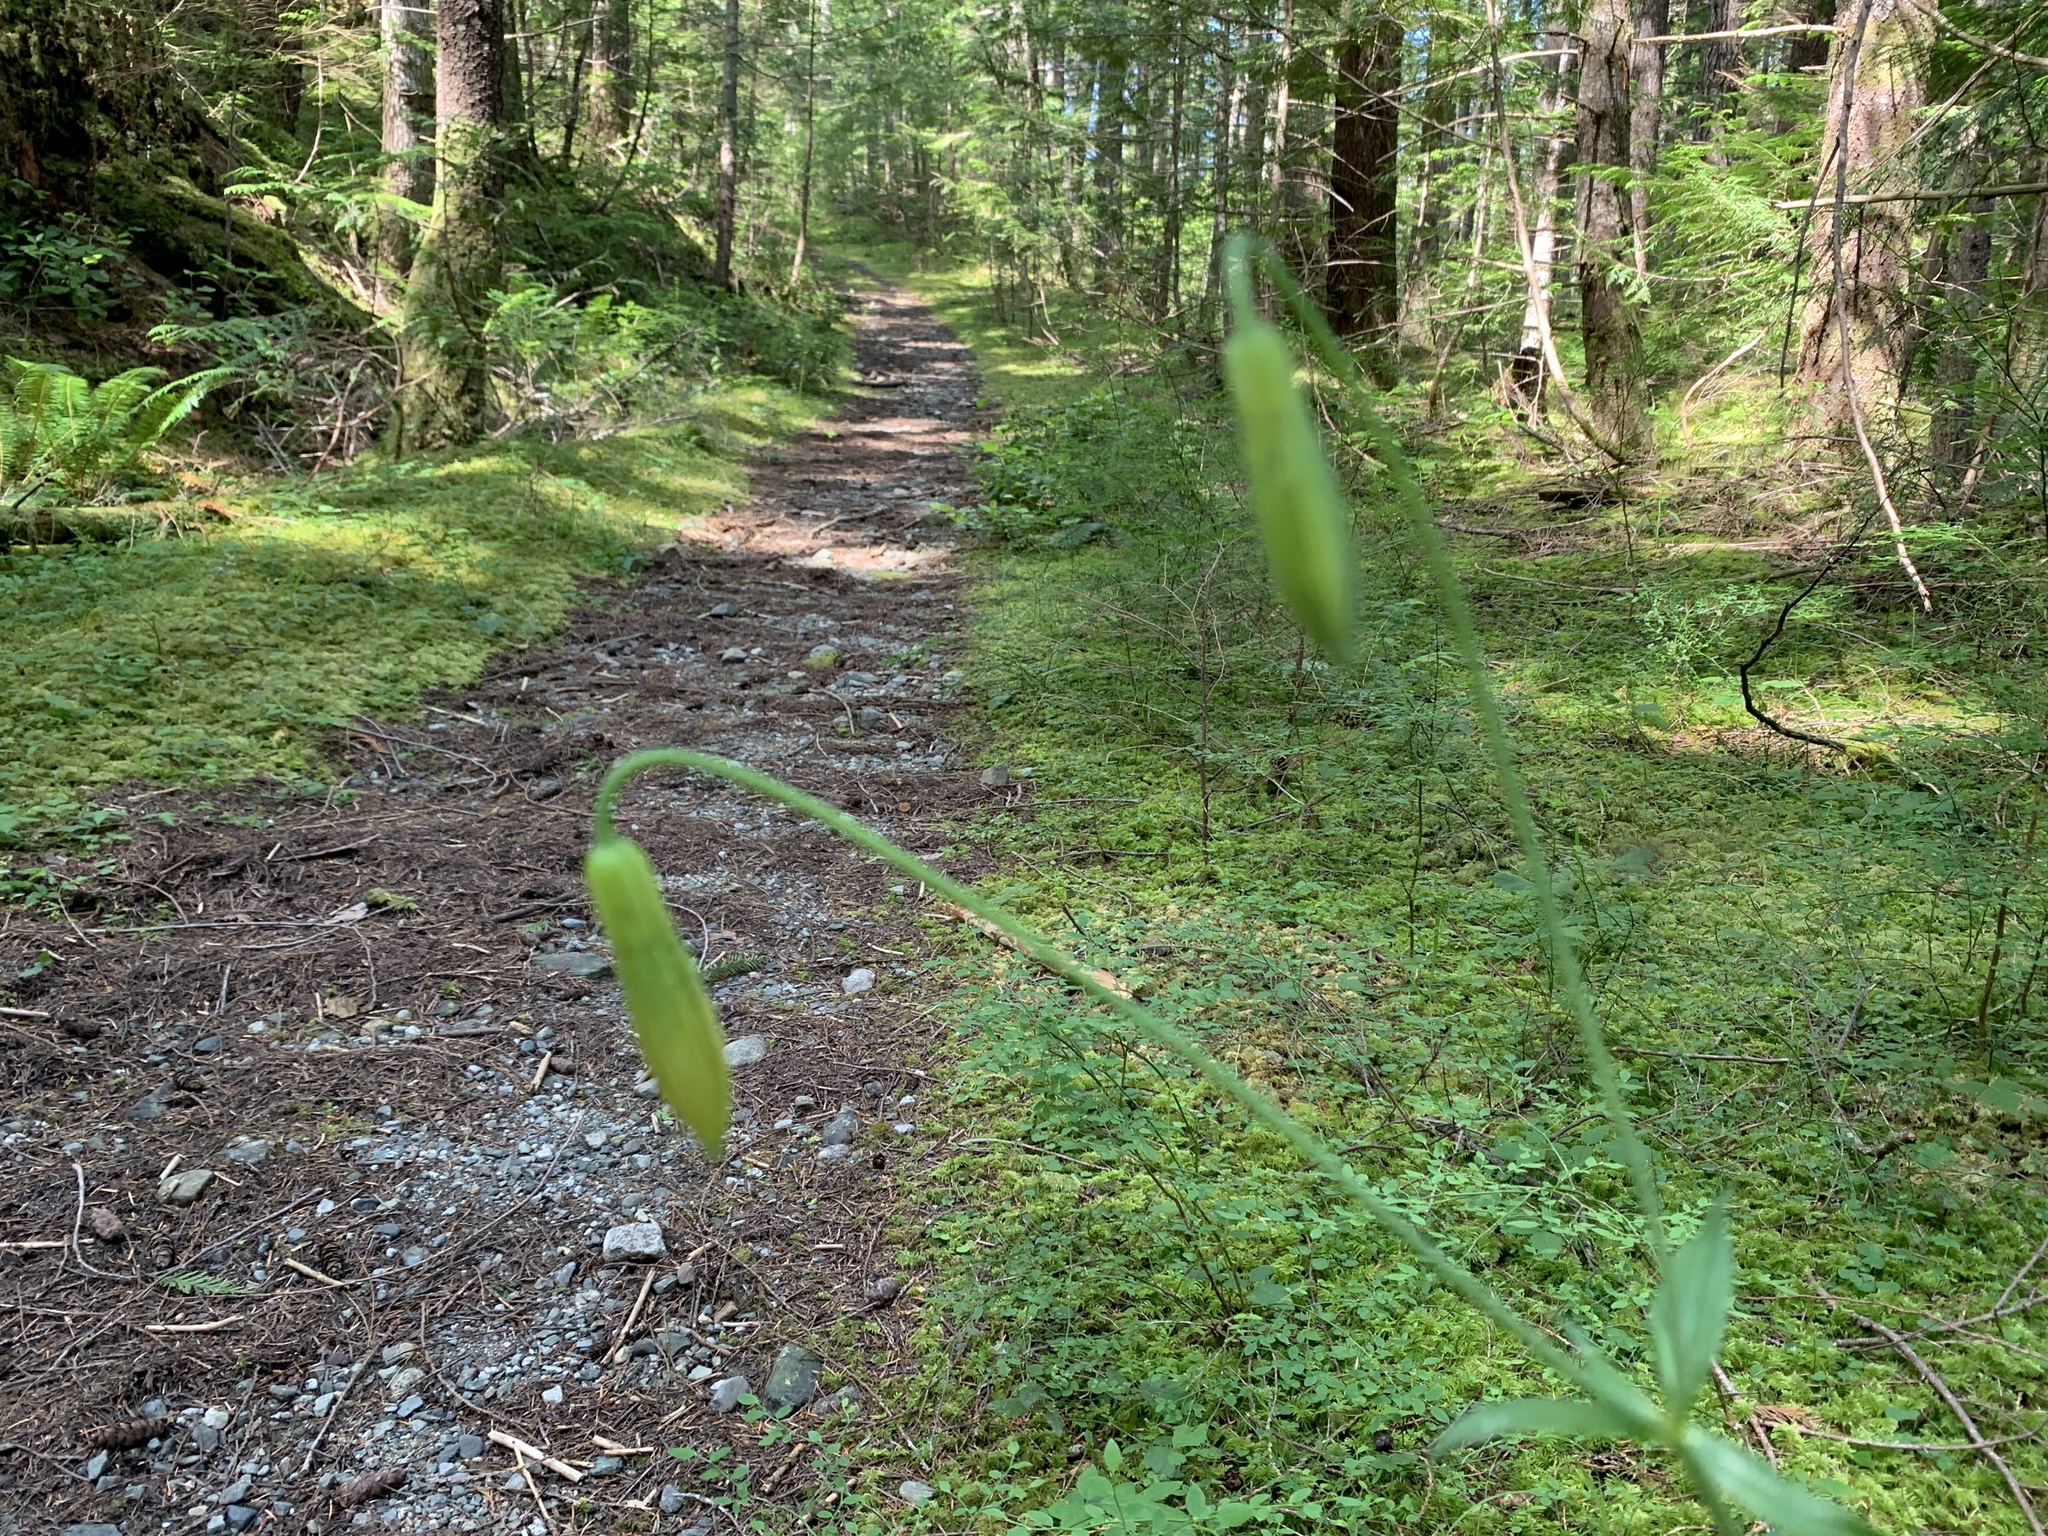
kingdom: Plantae
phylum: Tracheophyta
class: Liliopsida
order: Liliales
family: Liliaceae
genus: Lilium
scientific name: Lilium columbianum
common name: Columbia lily
